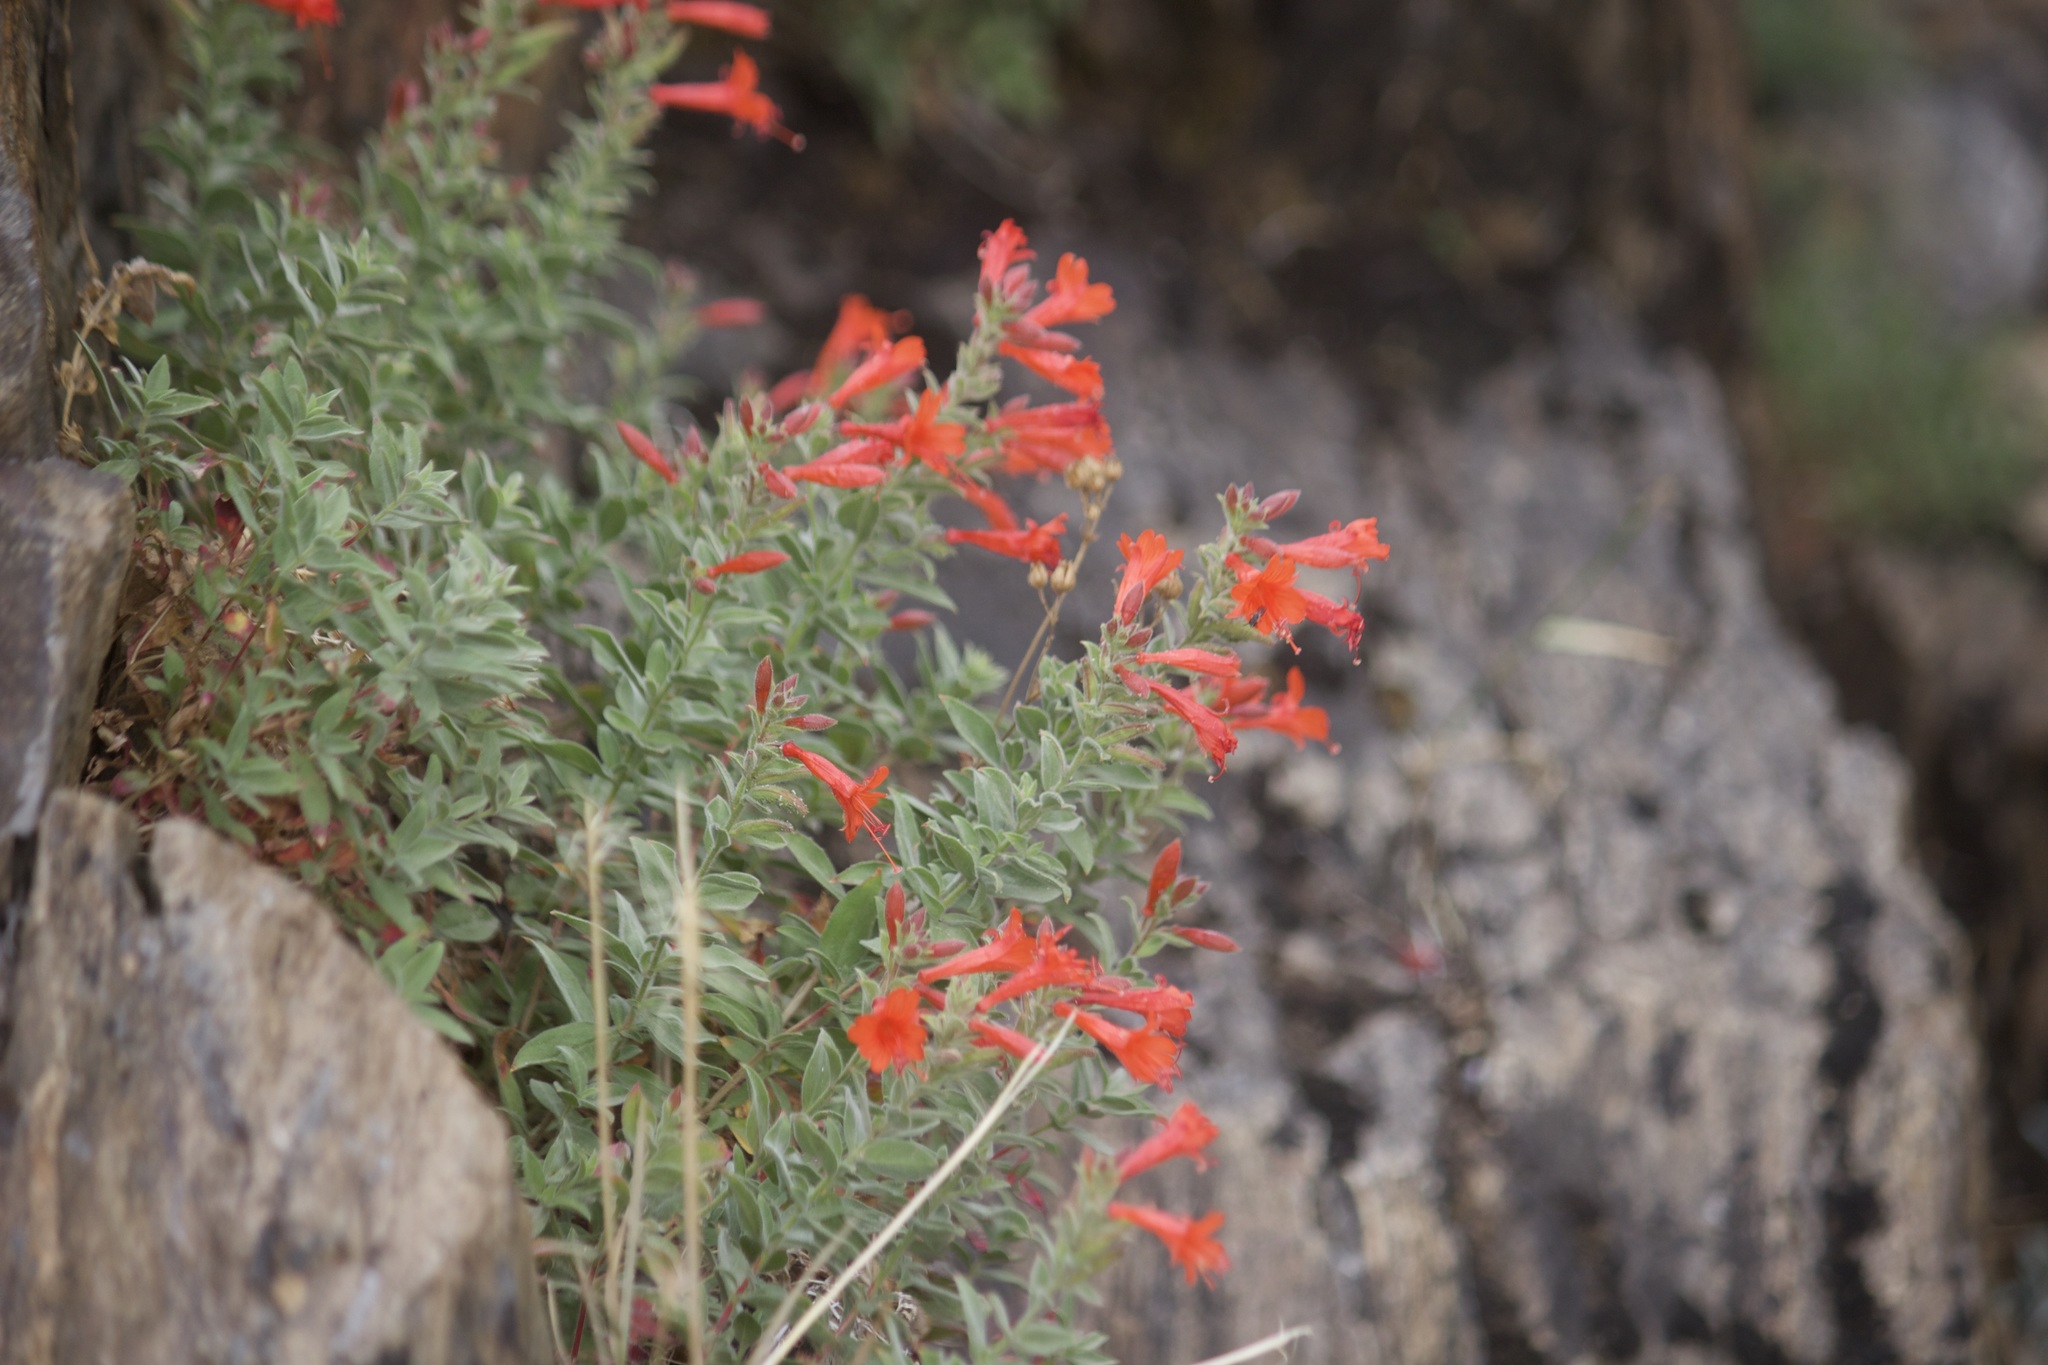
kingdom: Plantae
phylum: Tracheophyta
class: Magnoliopsida
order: Myrtales
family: Onagraceae
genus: Epilobium
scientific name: Epilobium canum
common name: California-fuchsia
